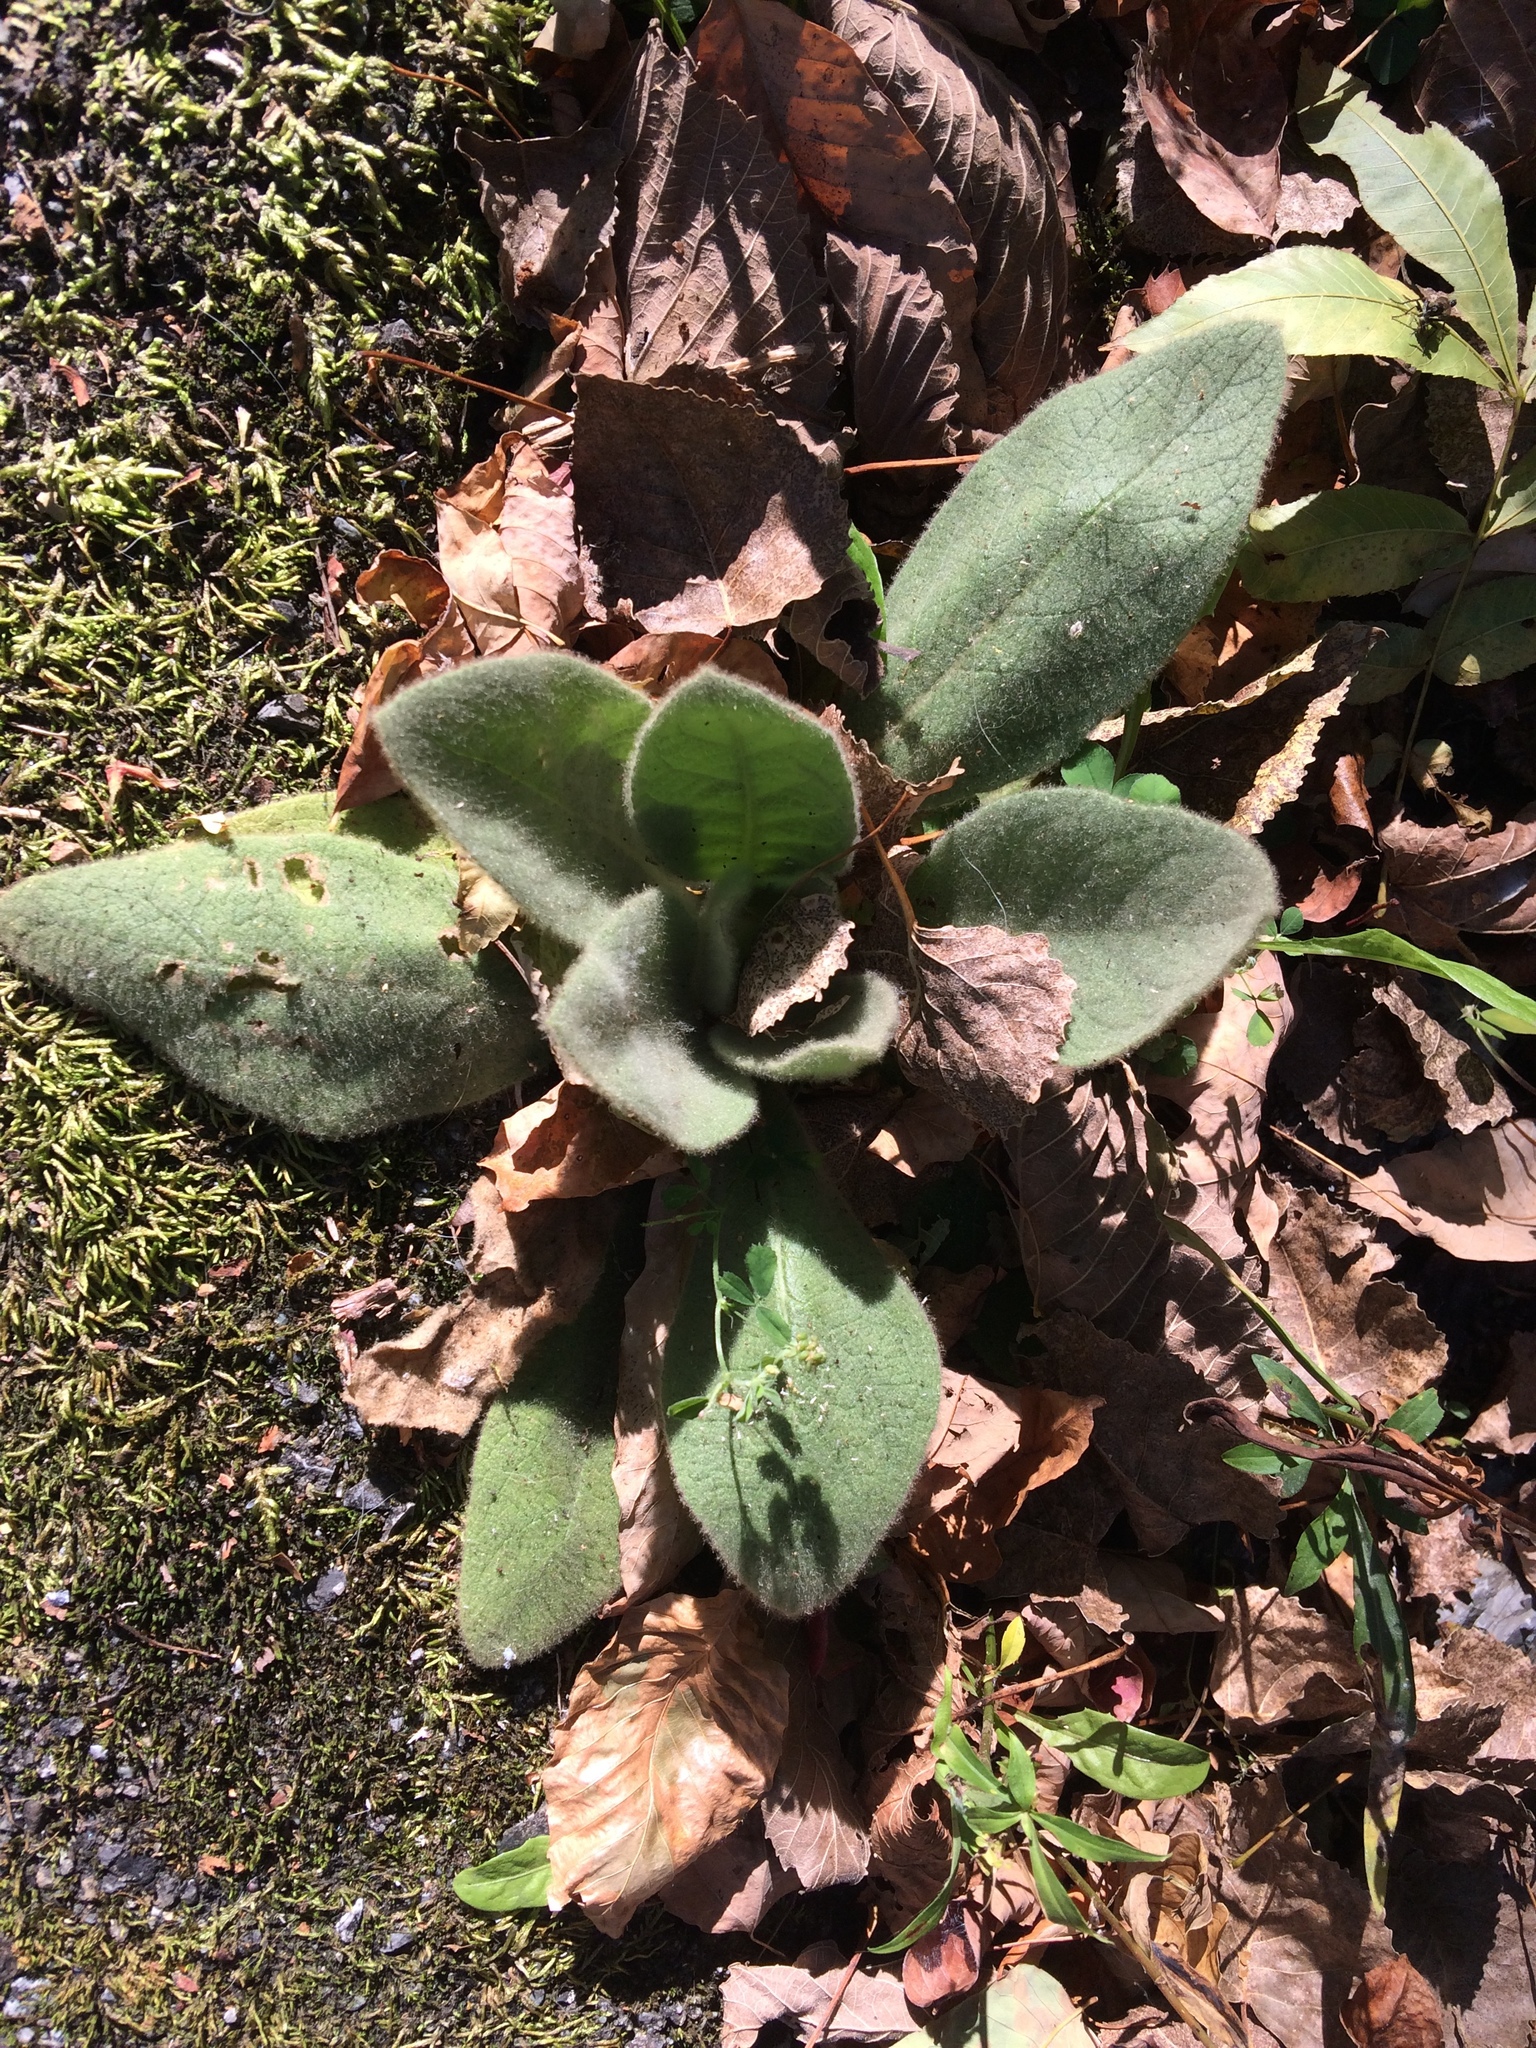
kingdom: Plantae
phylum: Tracheophyta
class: Magnoliopsida
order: Lamiales
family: Scrophulariaceae
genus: Verbascum
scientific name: Verbascum thapsus
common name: Common mullein
